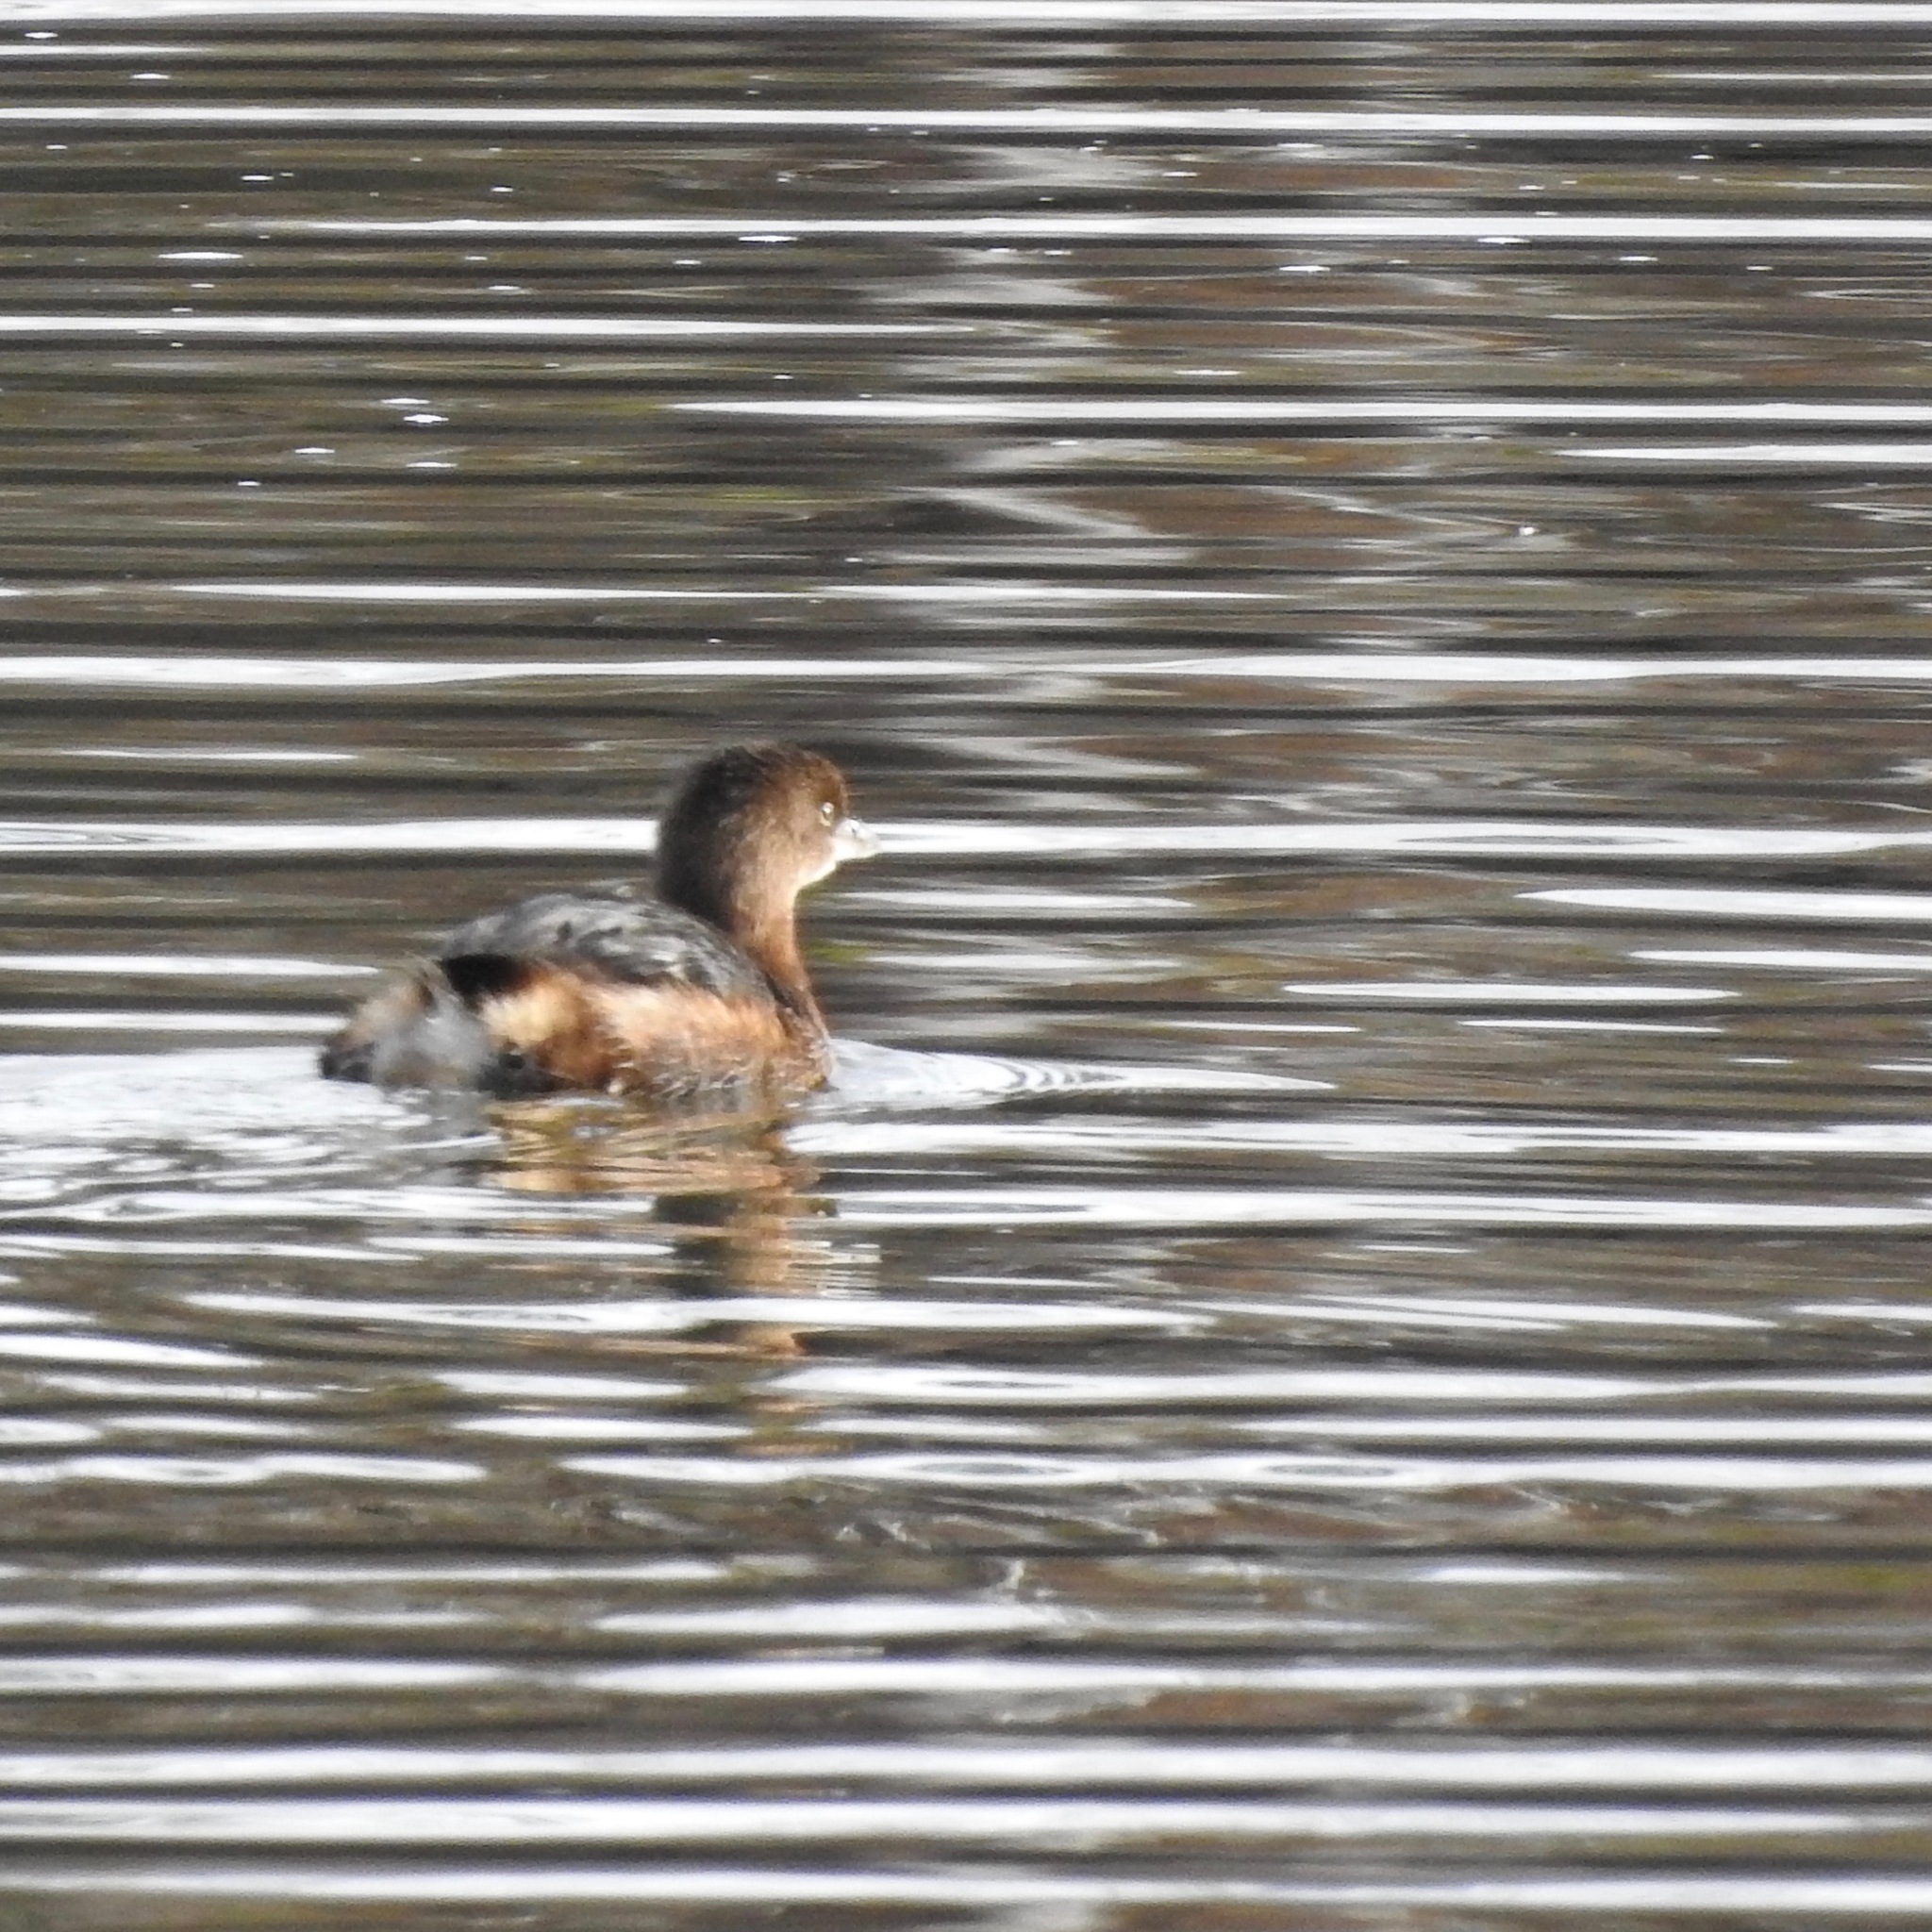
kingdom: Animalia
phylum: Chordata
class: Aves
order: Podicipediformes
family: Podicipedidae
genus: Podilymbus
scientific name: Podilymbus podiceps
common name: Pied-billed grebe
